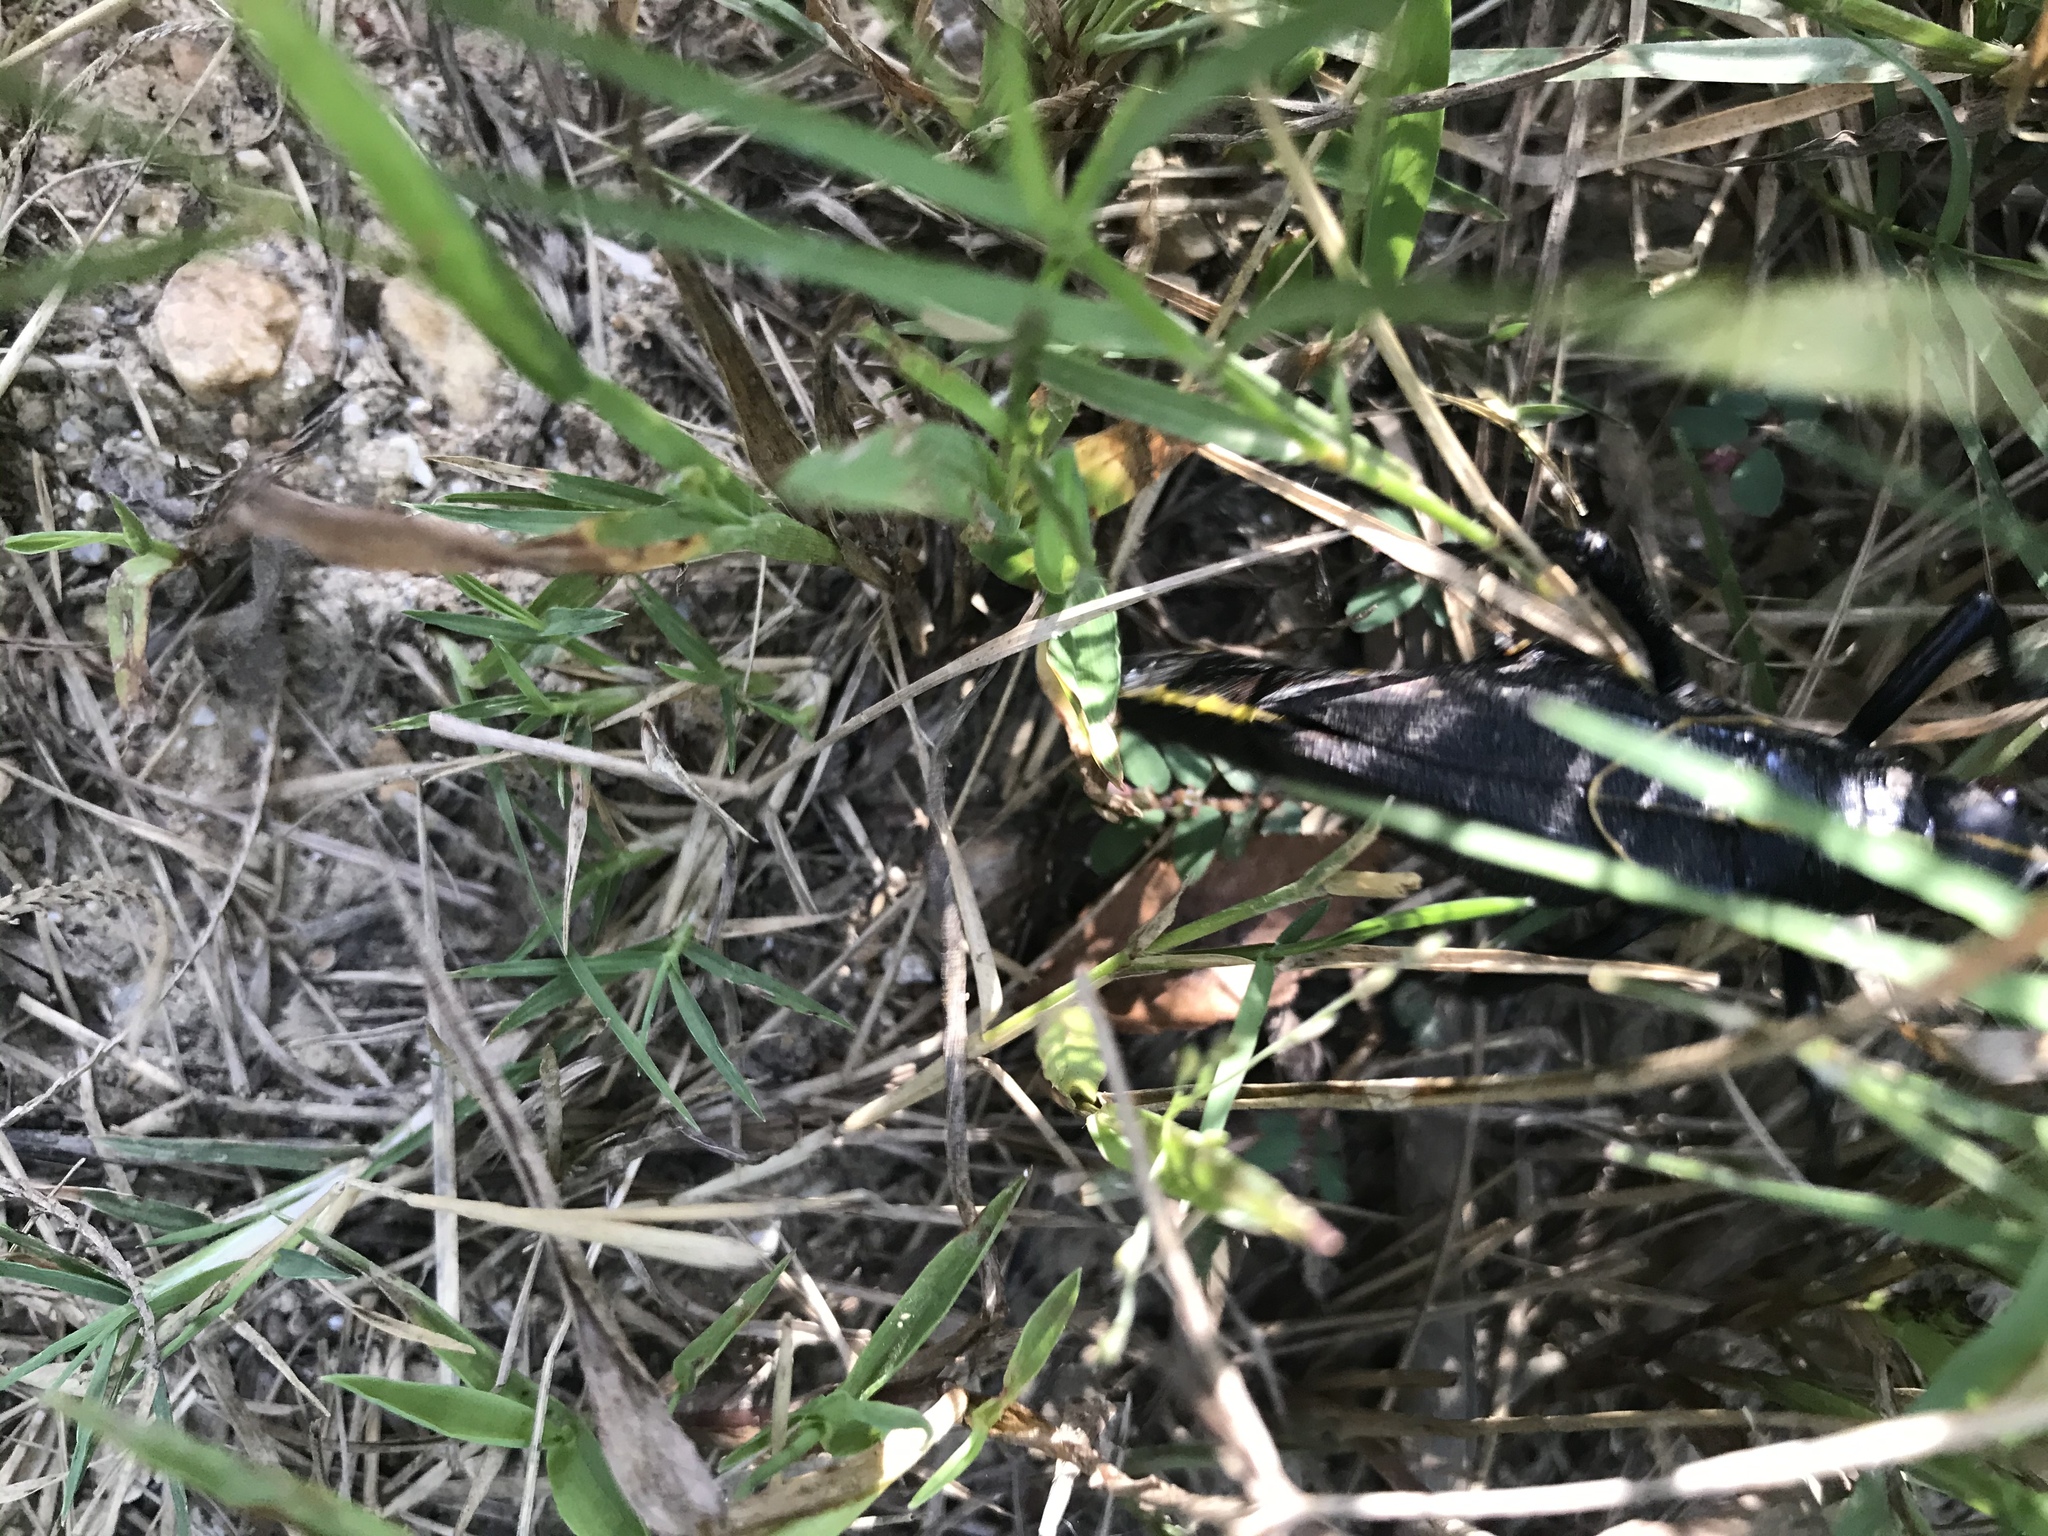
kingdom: Animalia
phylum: Arthropoda
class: Insecta
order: Orthoptera
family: Romaleidae
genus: Romalea
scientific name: Romalea microptera
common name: Eastern lubber grasshopper
